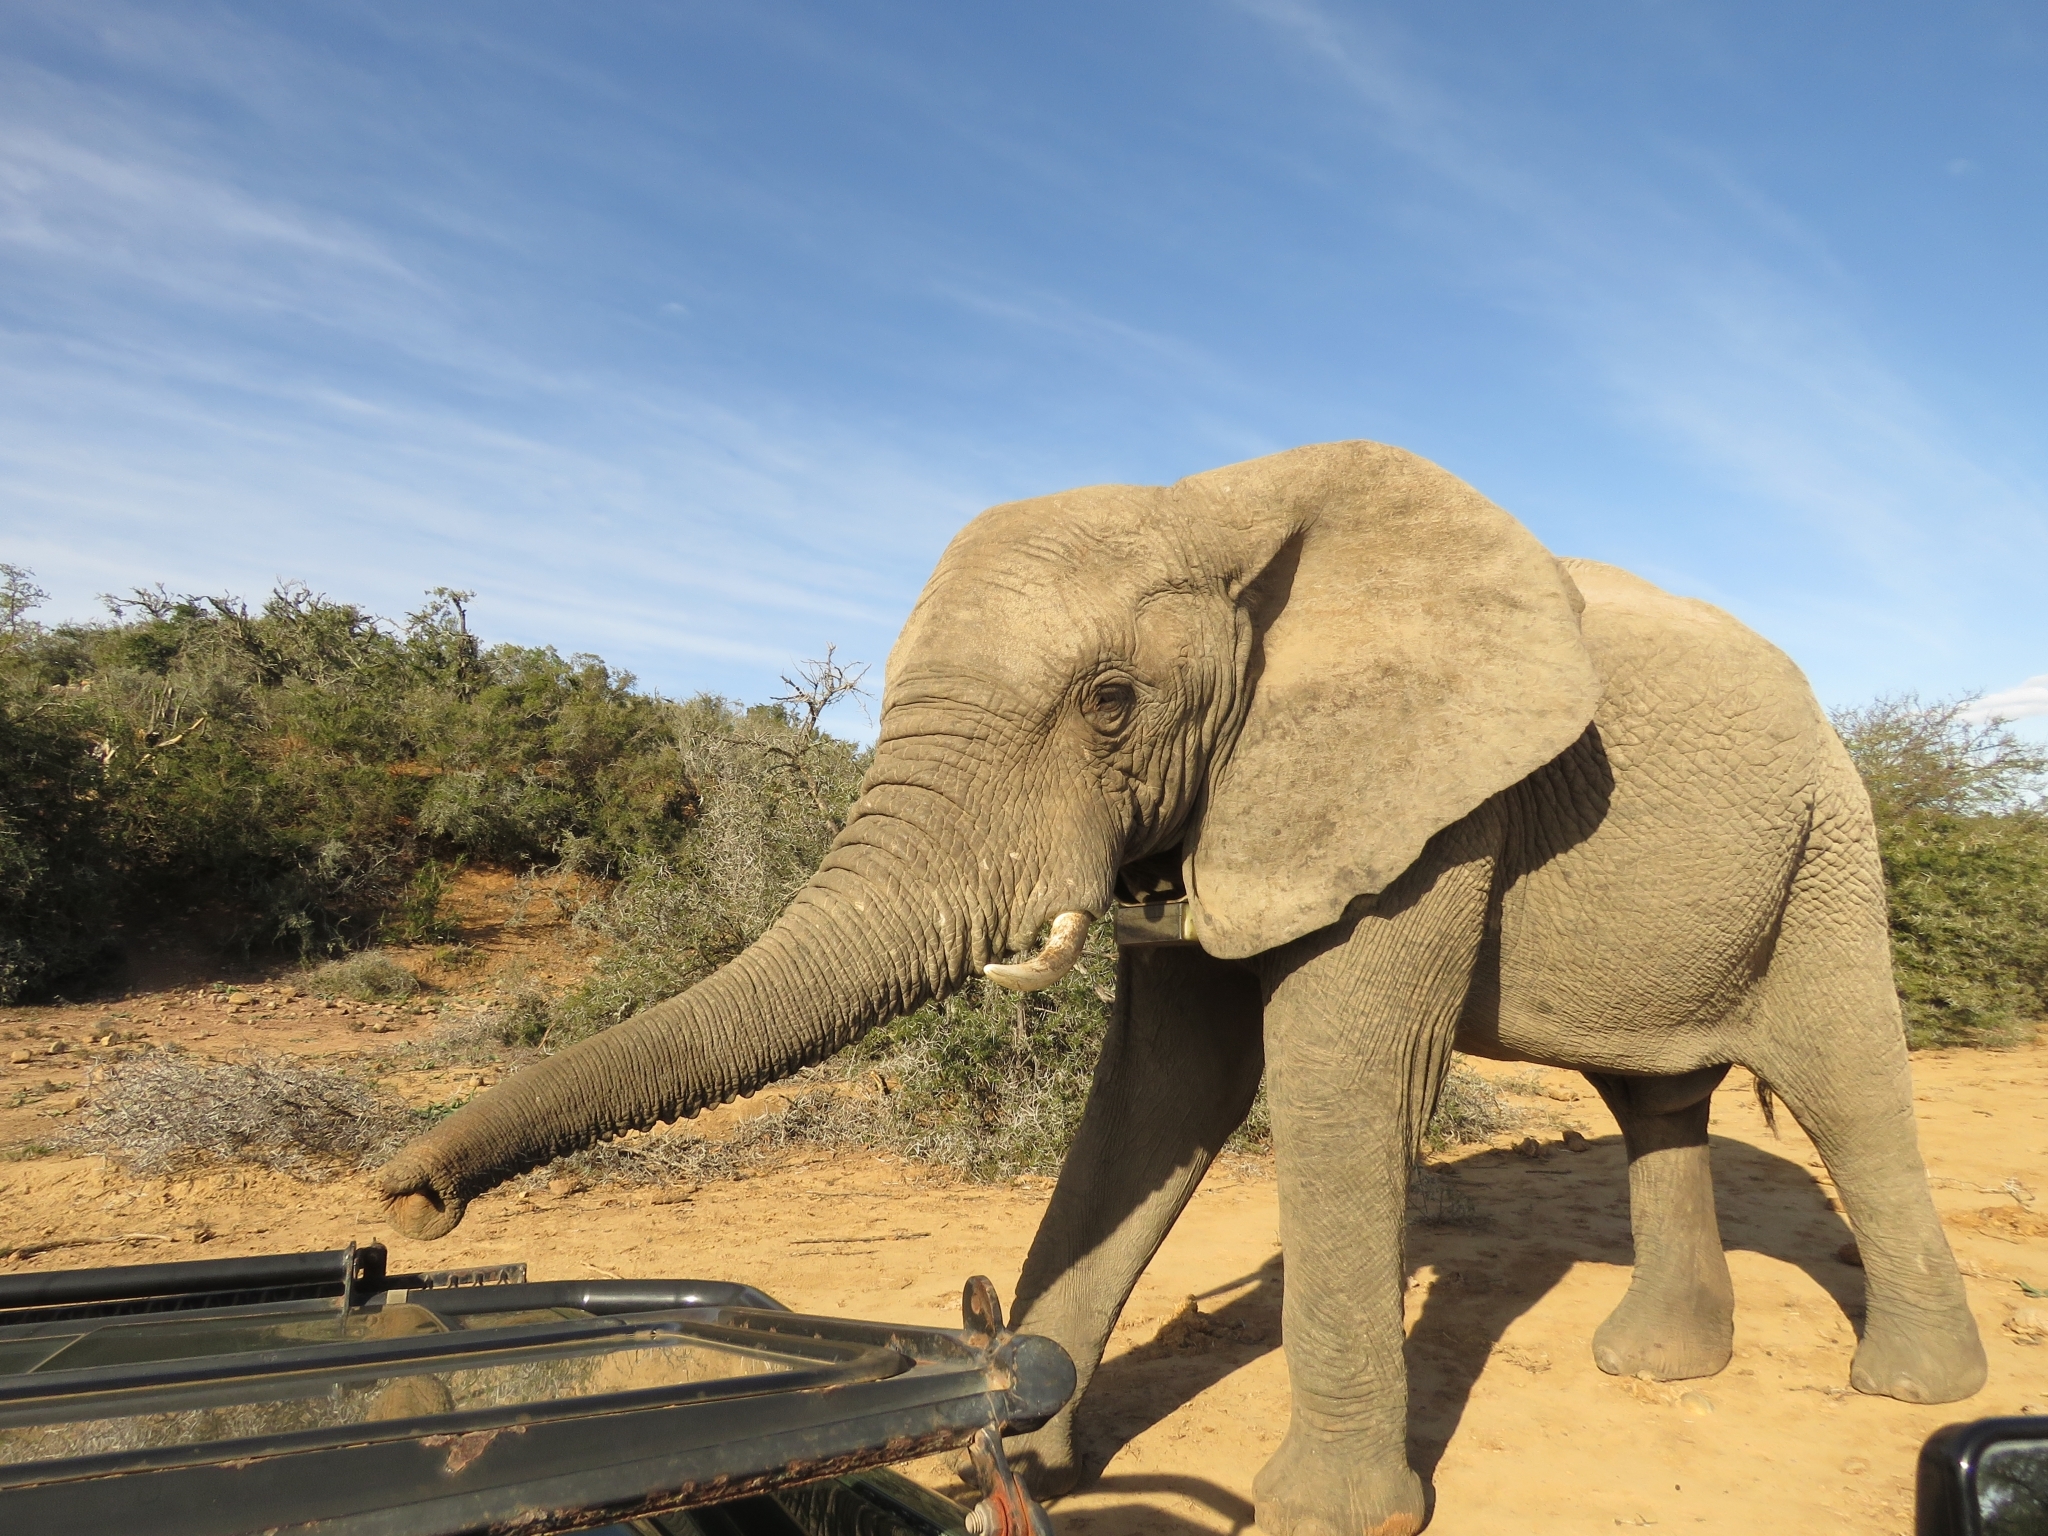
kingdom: Animalia
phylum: Chordata
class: Mammalia
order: Proboscidea
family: Elephantidae
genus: Loxodonta
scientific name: Loxodonta africana
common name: African elephant
